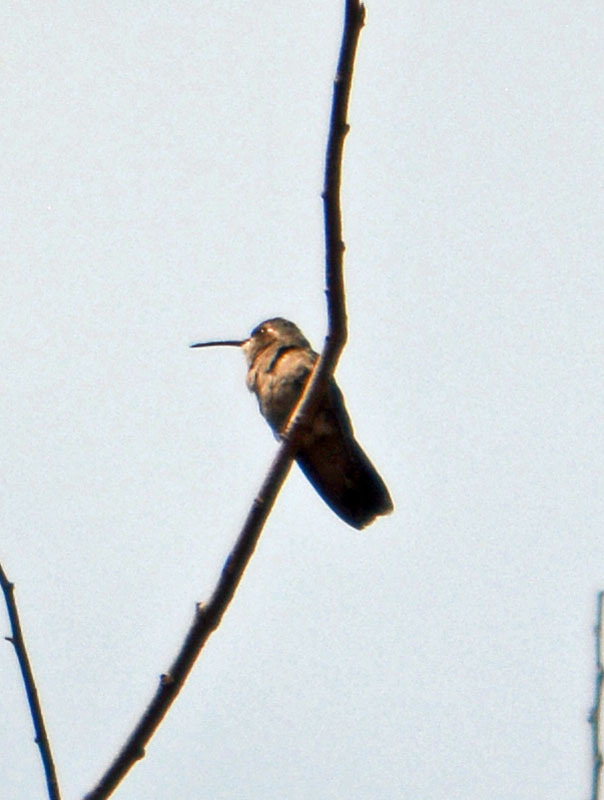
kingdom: Animalia
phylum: Chordata
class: Aves
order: Apodiformes
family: Trochilidae
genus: Cynanthus
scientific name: Cynanthus latirostris
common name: Broad-billed hummingbird
